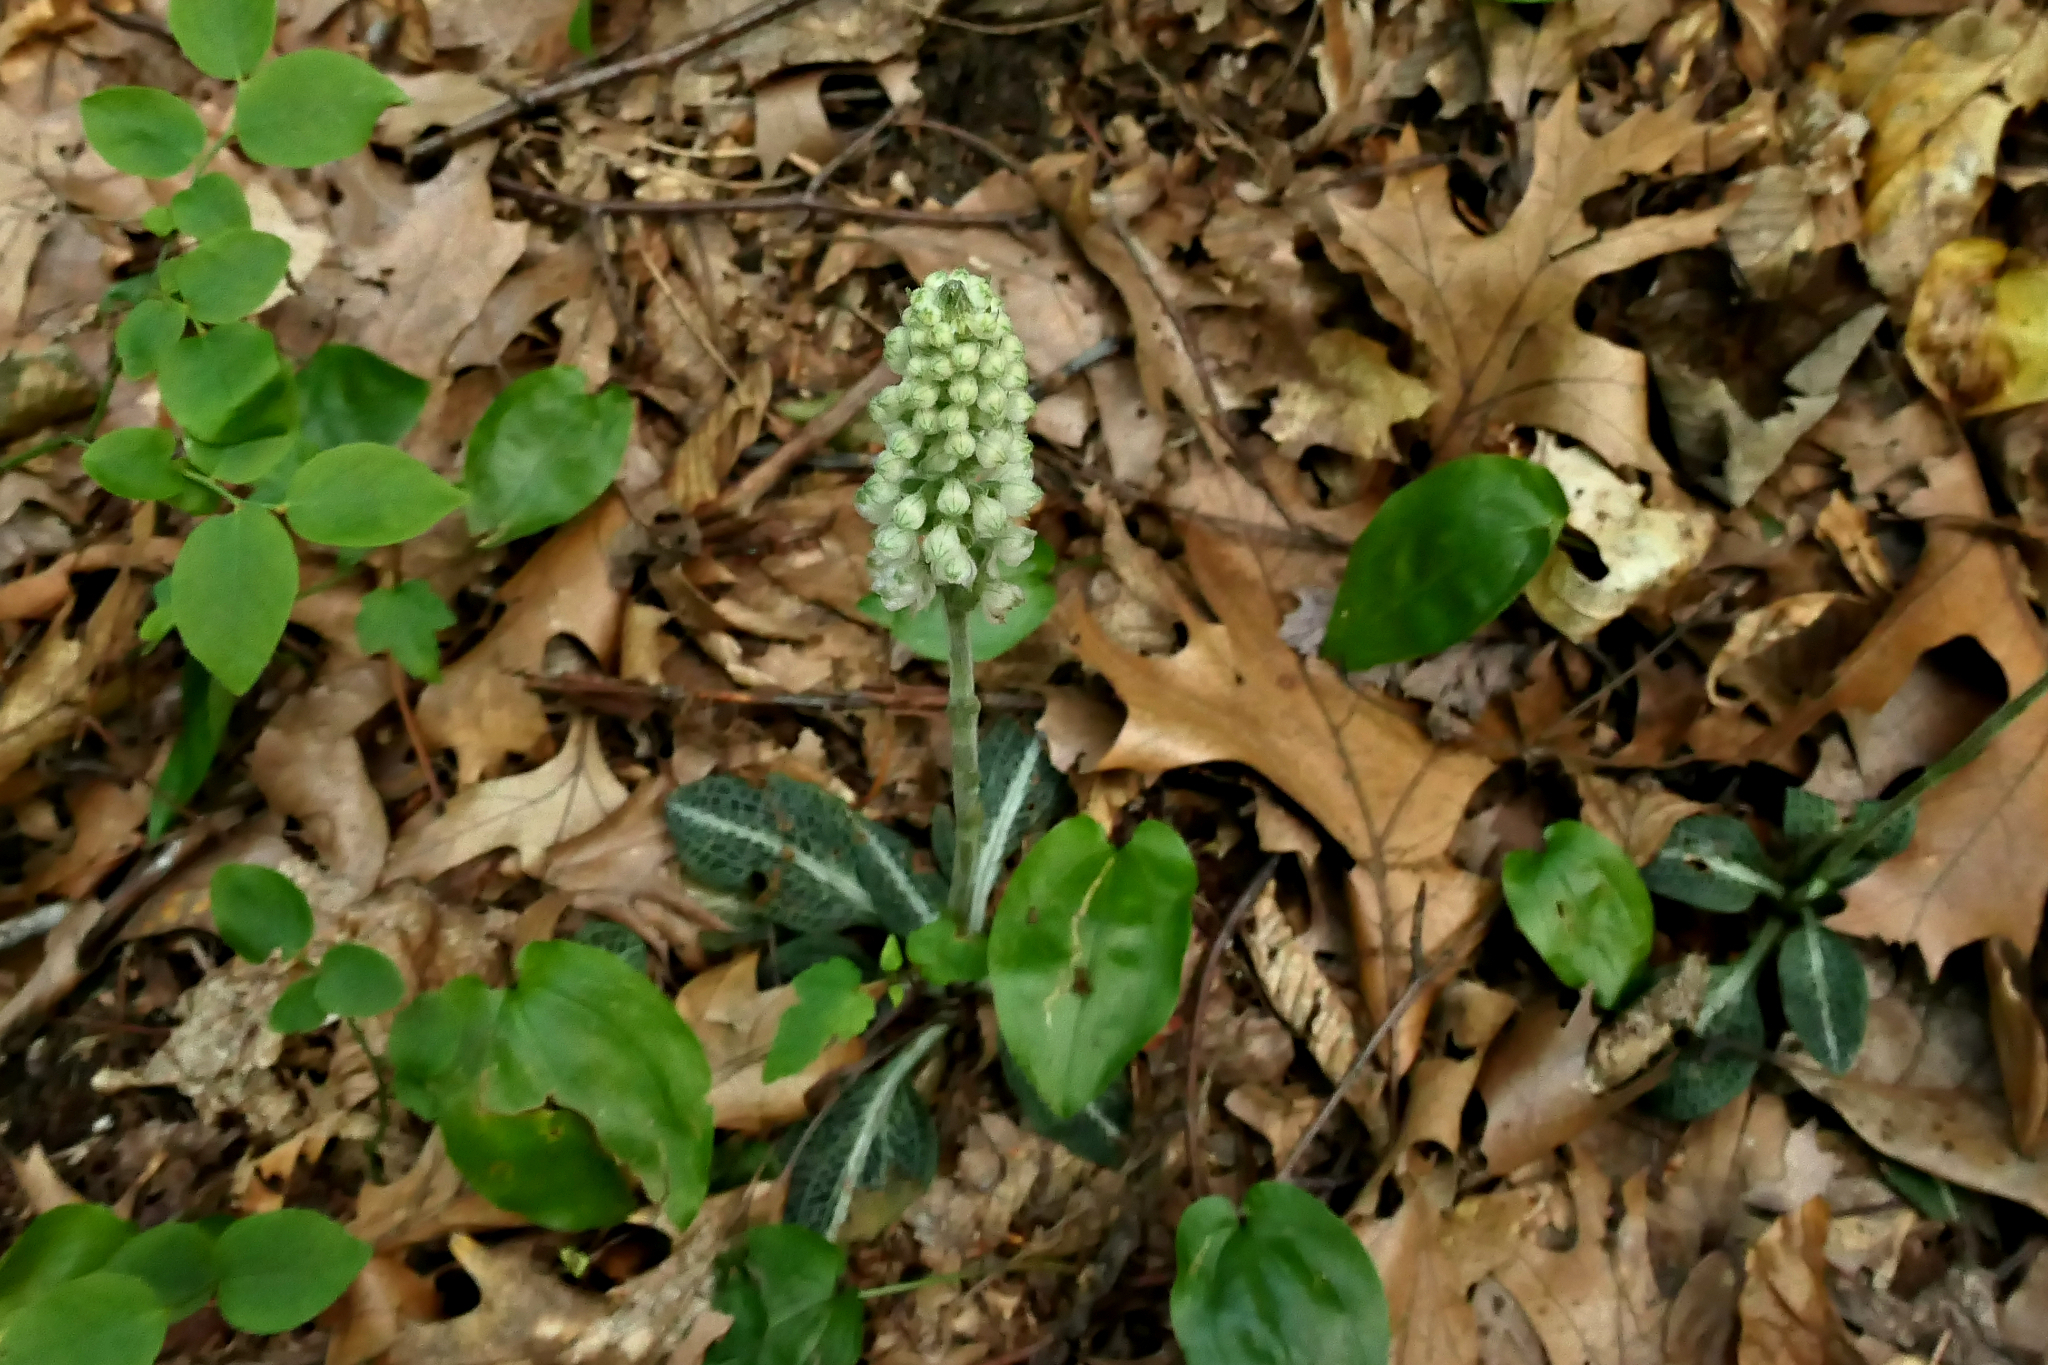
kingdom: Plantae
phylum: Tracheophyta
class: Liliopsida
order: Asparagales
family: Orchidaceae
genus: Goodyera
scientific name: Goodyera pubescens
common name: Downy rattlesnake-plantain
